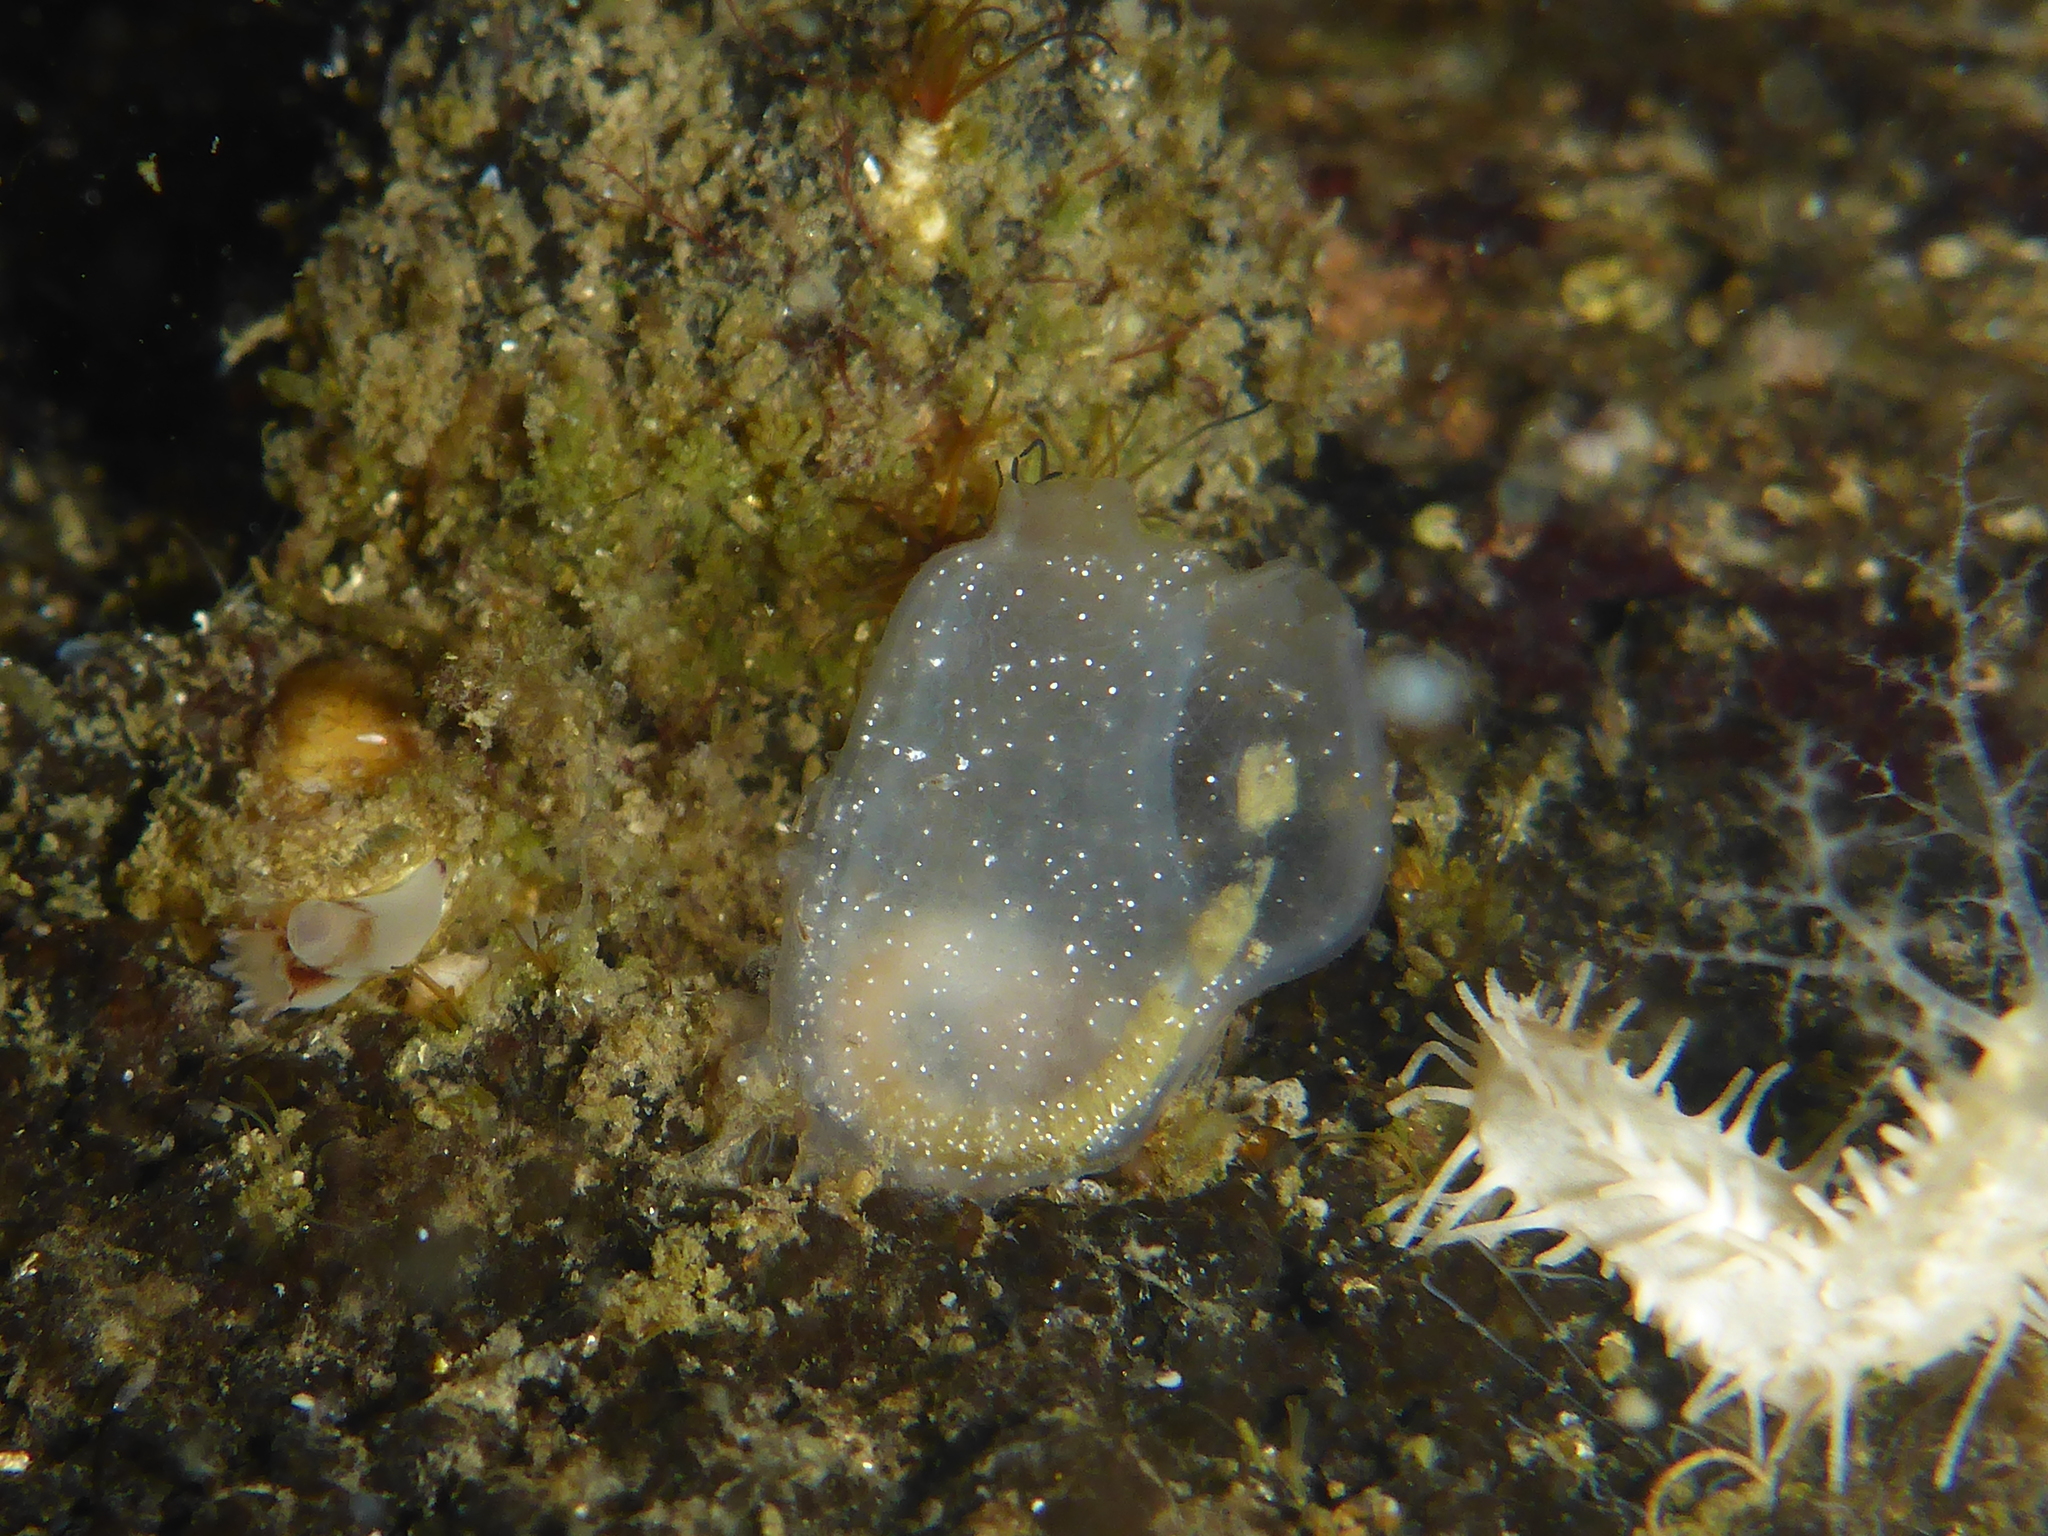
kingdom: Animalia
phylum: Chordata
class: Ascidiacea
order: Phlebobranchia
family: Corellidae
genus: Corella
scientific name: Corella willmeriana
